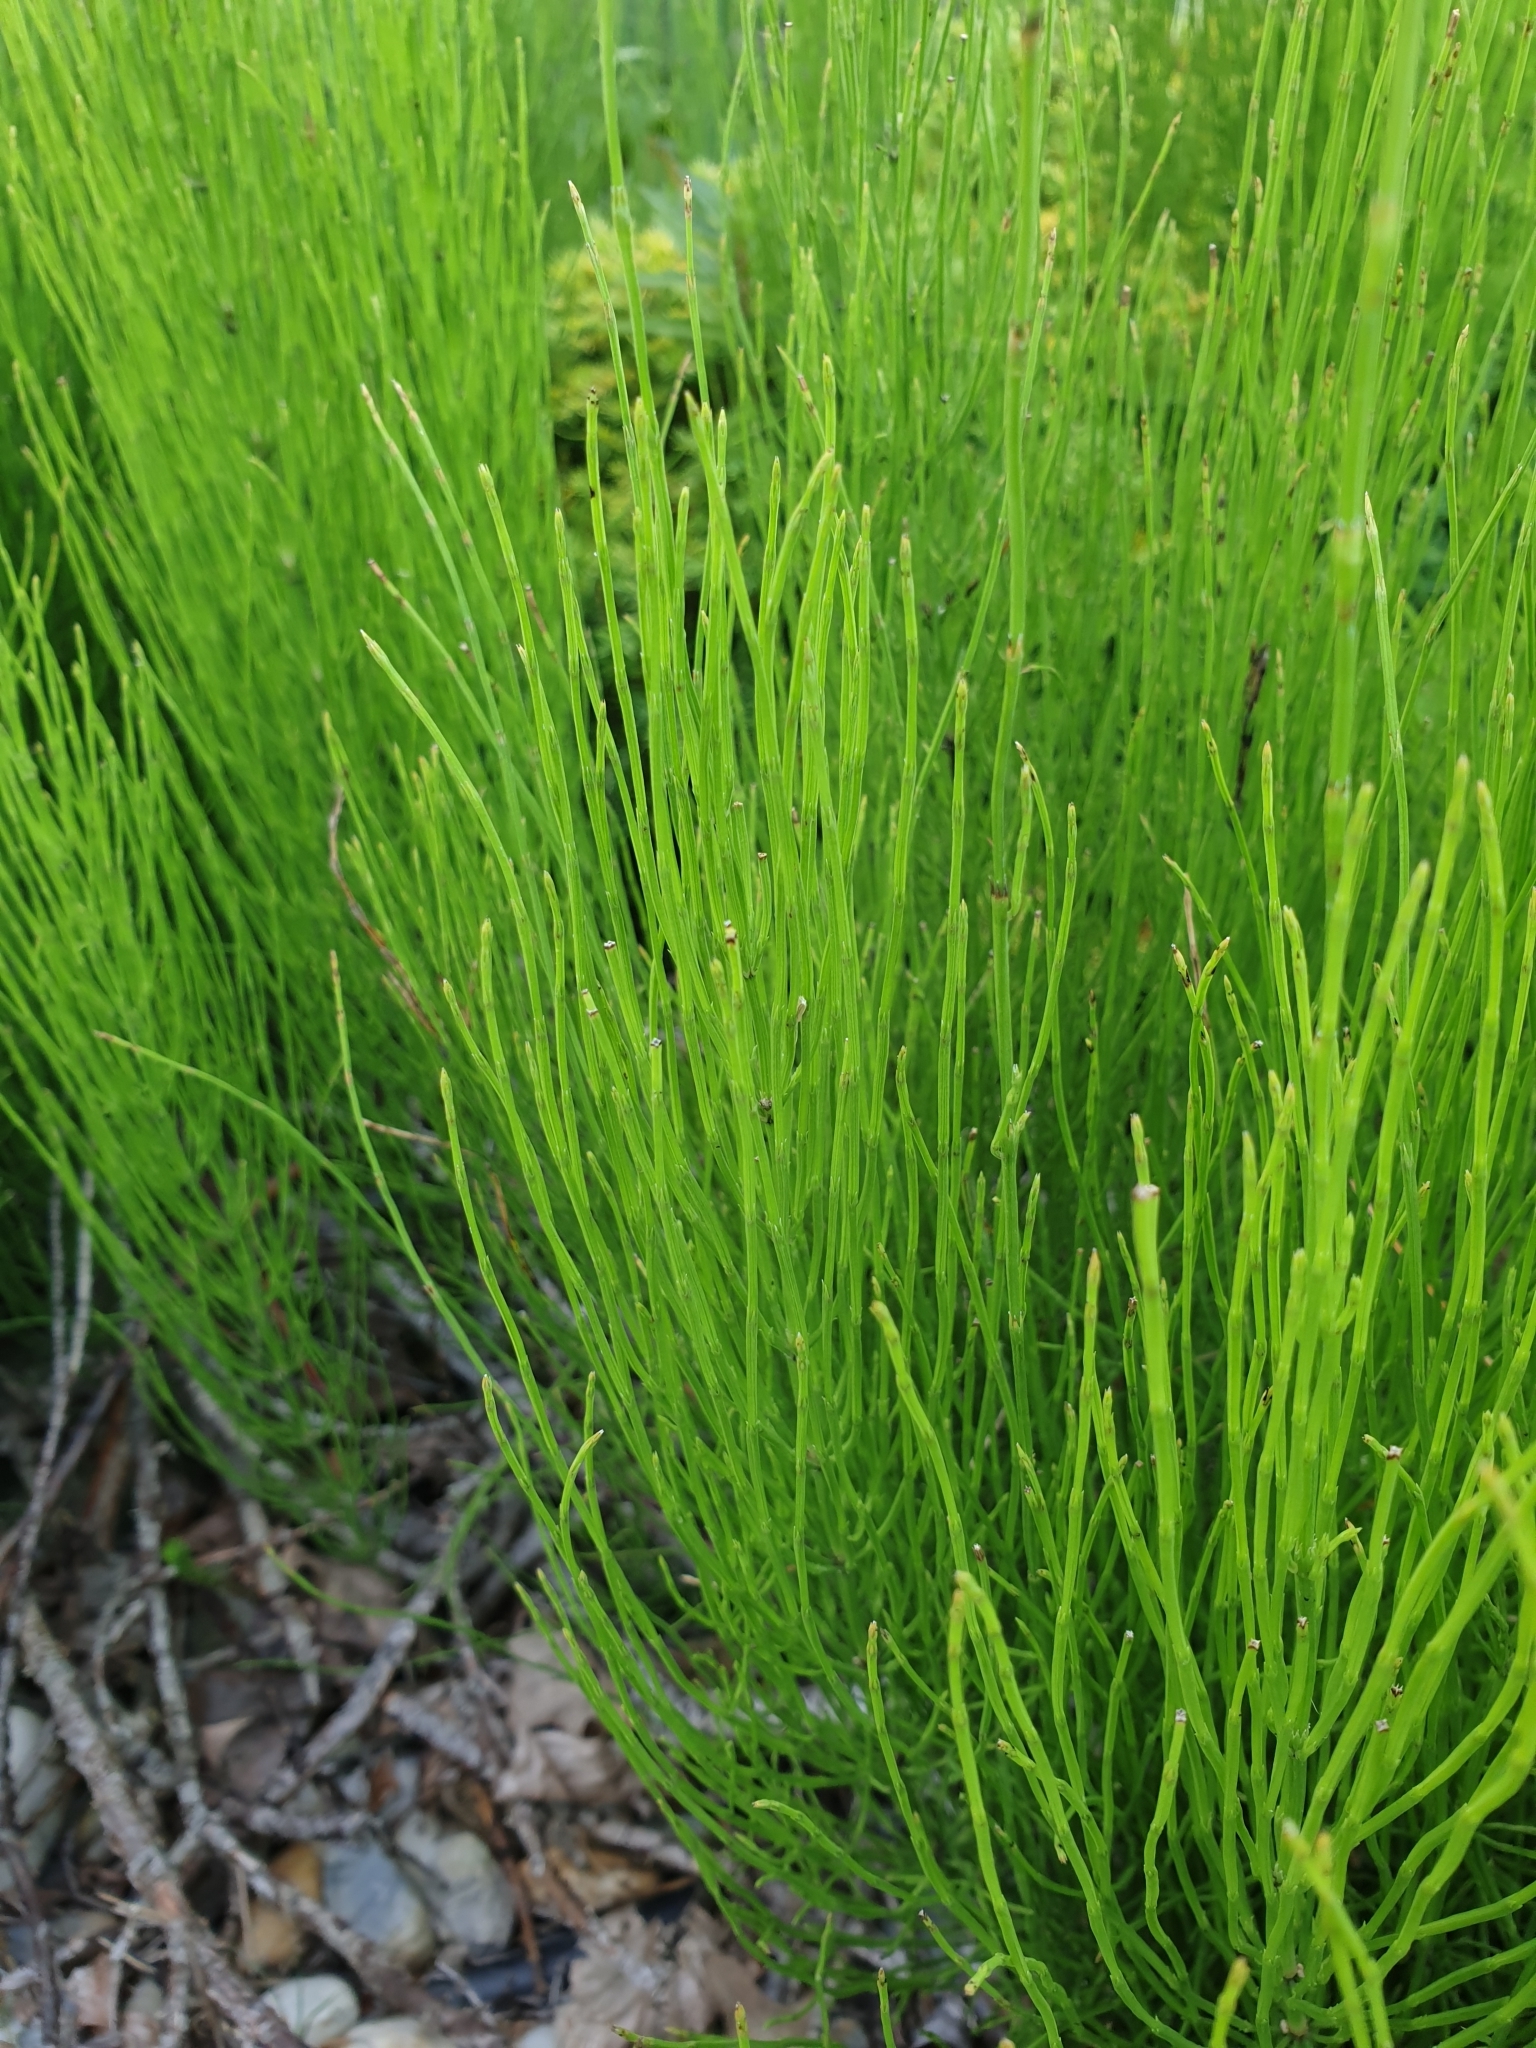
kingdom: Plantae
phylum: Tracheophyta
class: Polypodiopsida
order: Equisetales
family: Equisetaceae
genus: Equisetum
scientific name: Equisetum arvense
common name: Field horsetail
